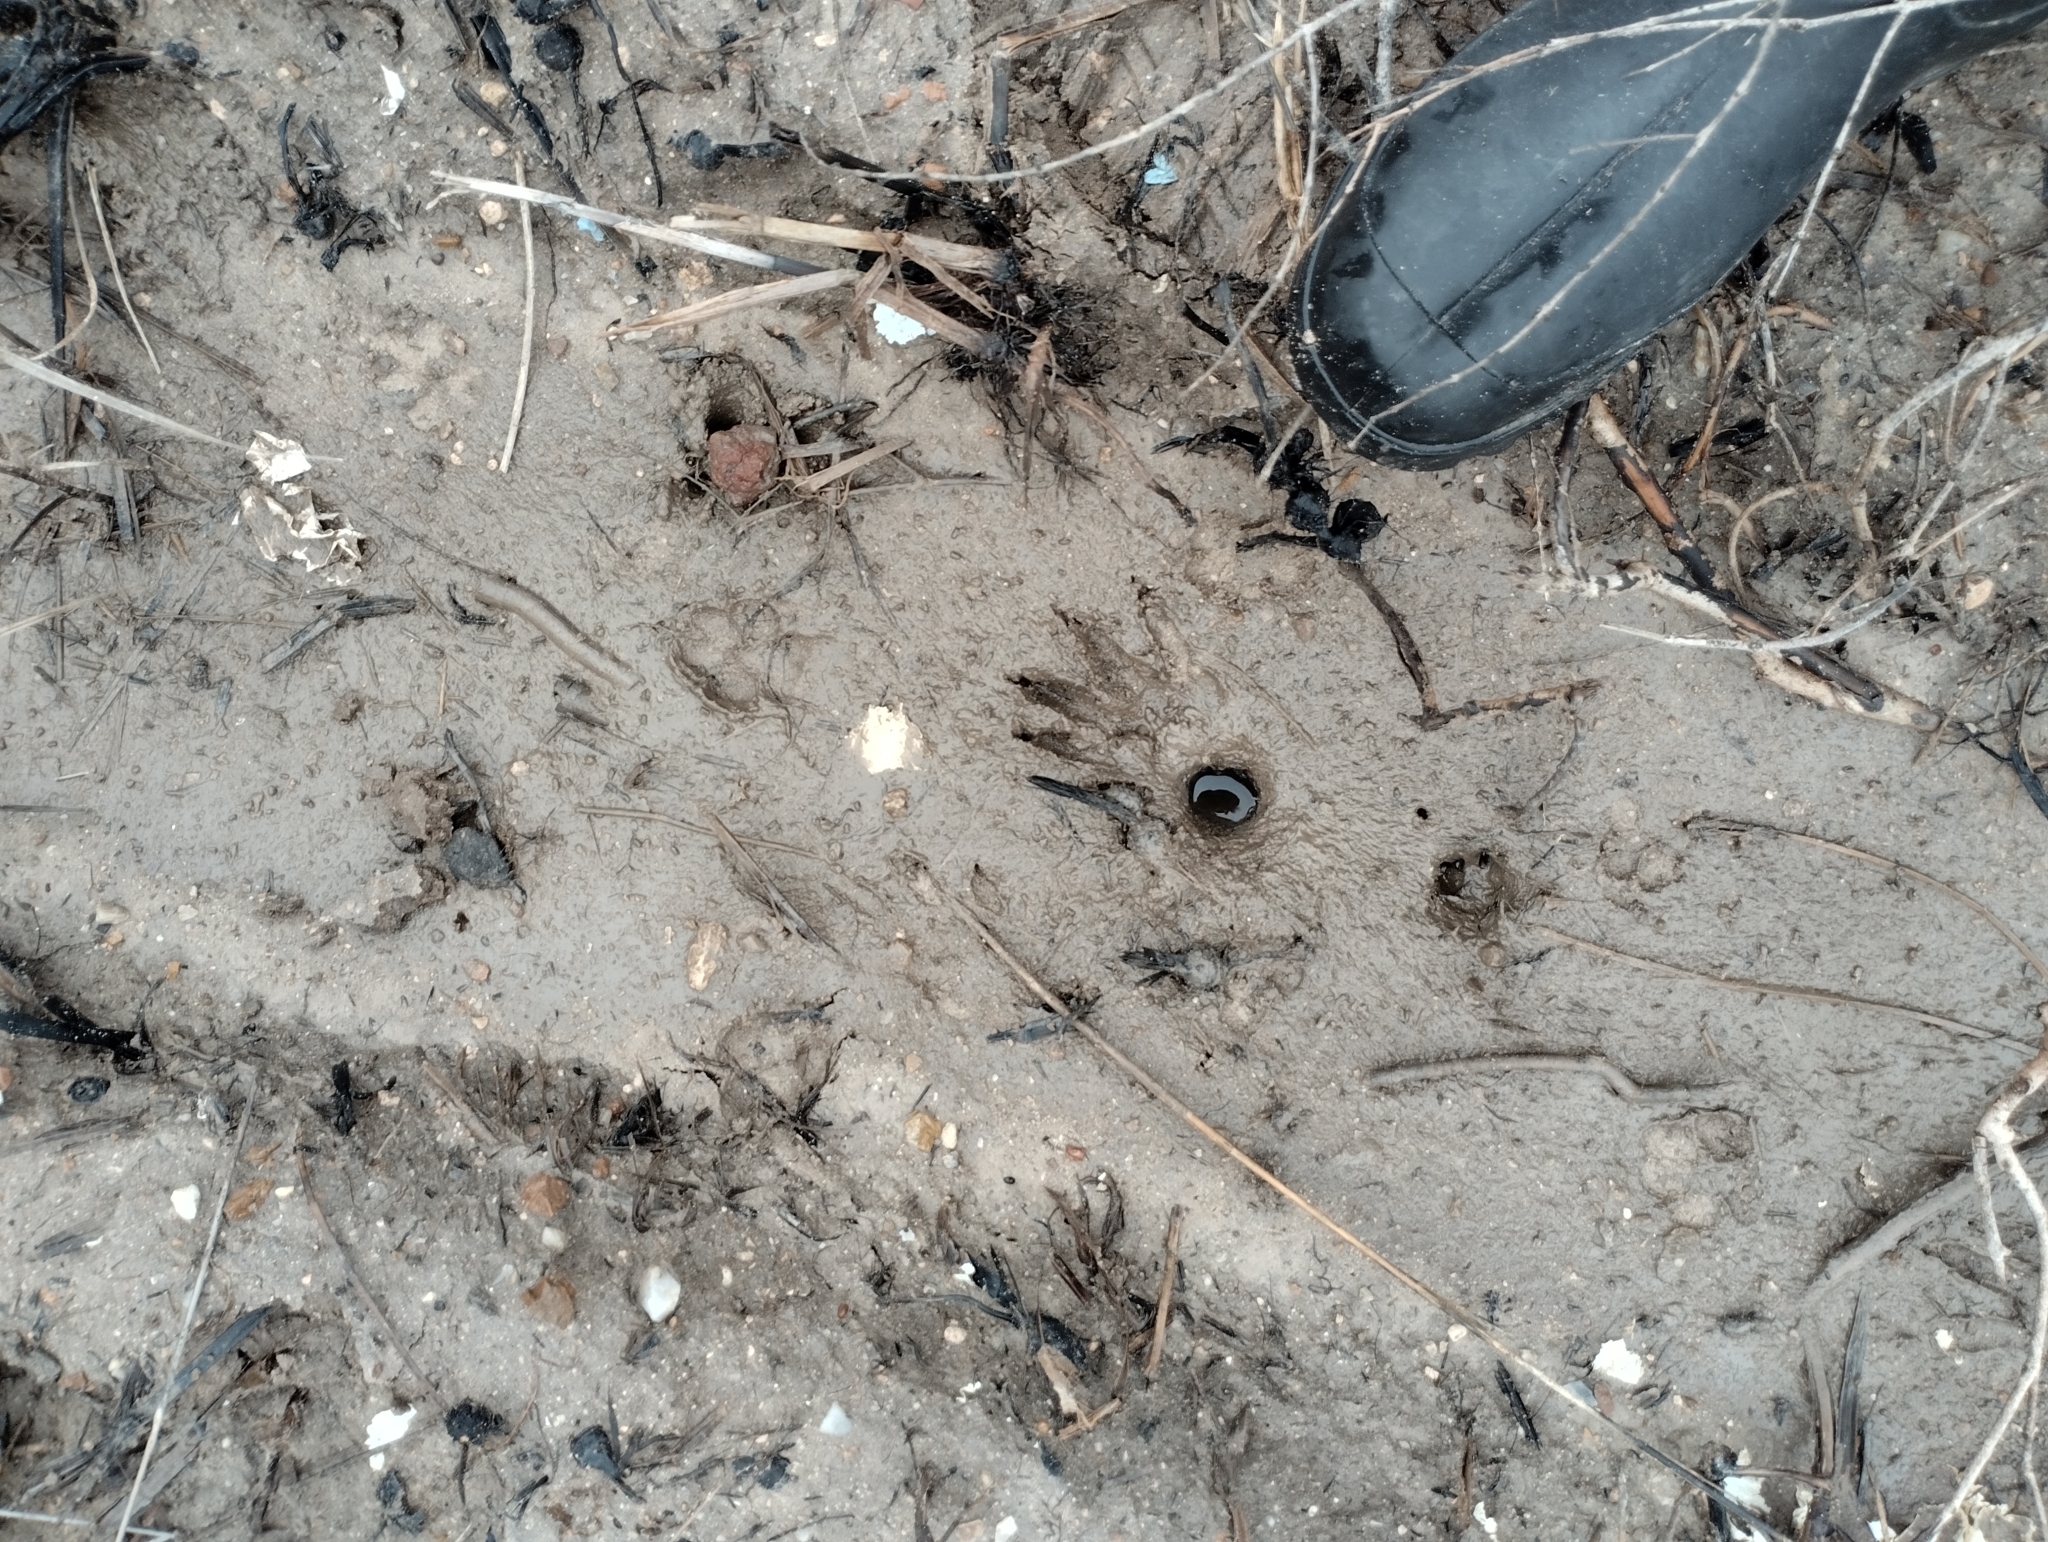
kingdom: Animalia
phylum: Chordata
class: Mammalia
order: Carnivora
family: Procyonidae
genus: Procyon
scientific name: Procyon cancrivorus
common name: Crab-eating raccoon
